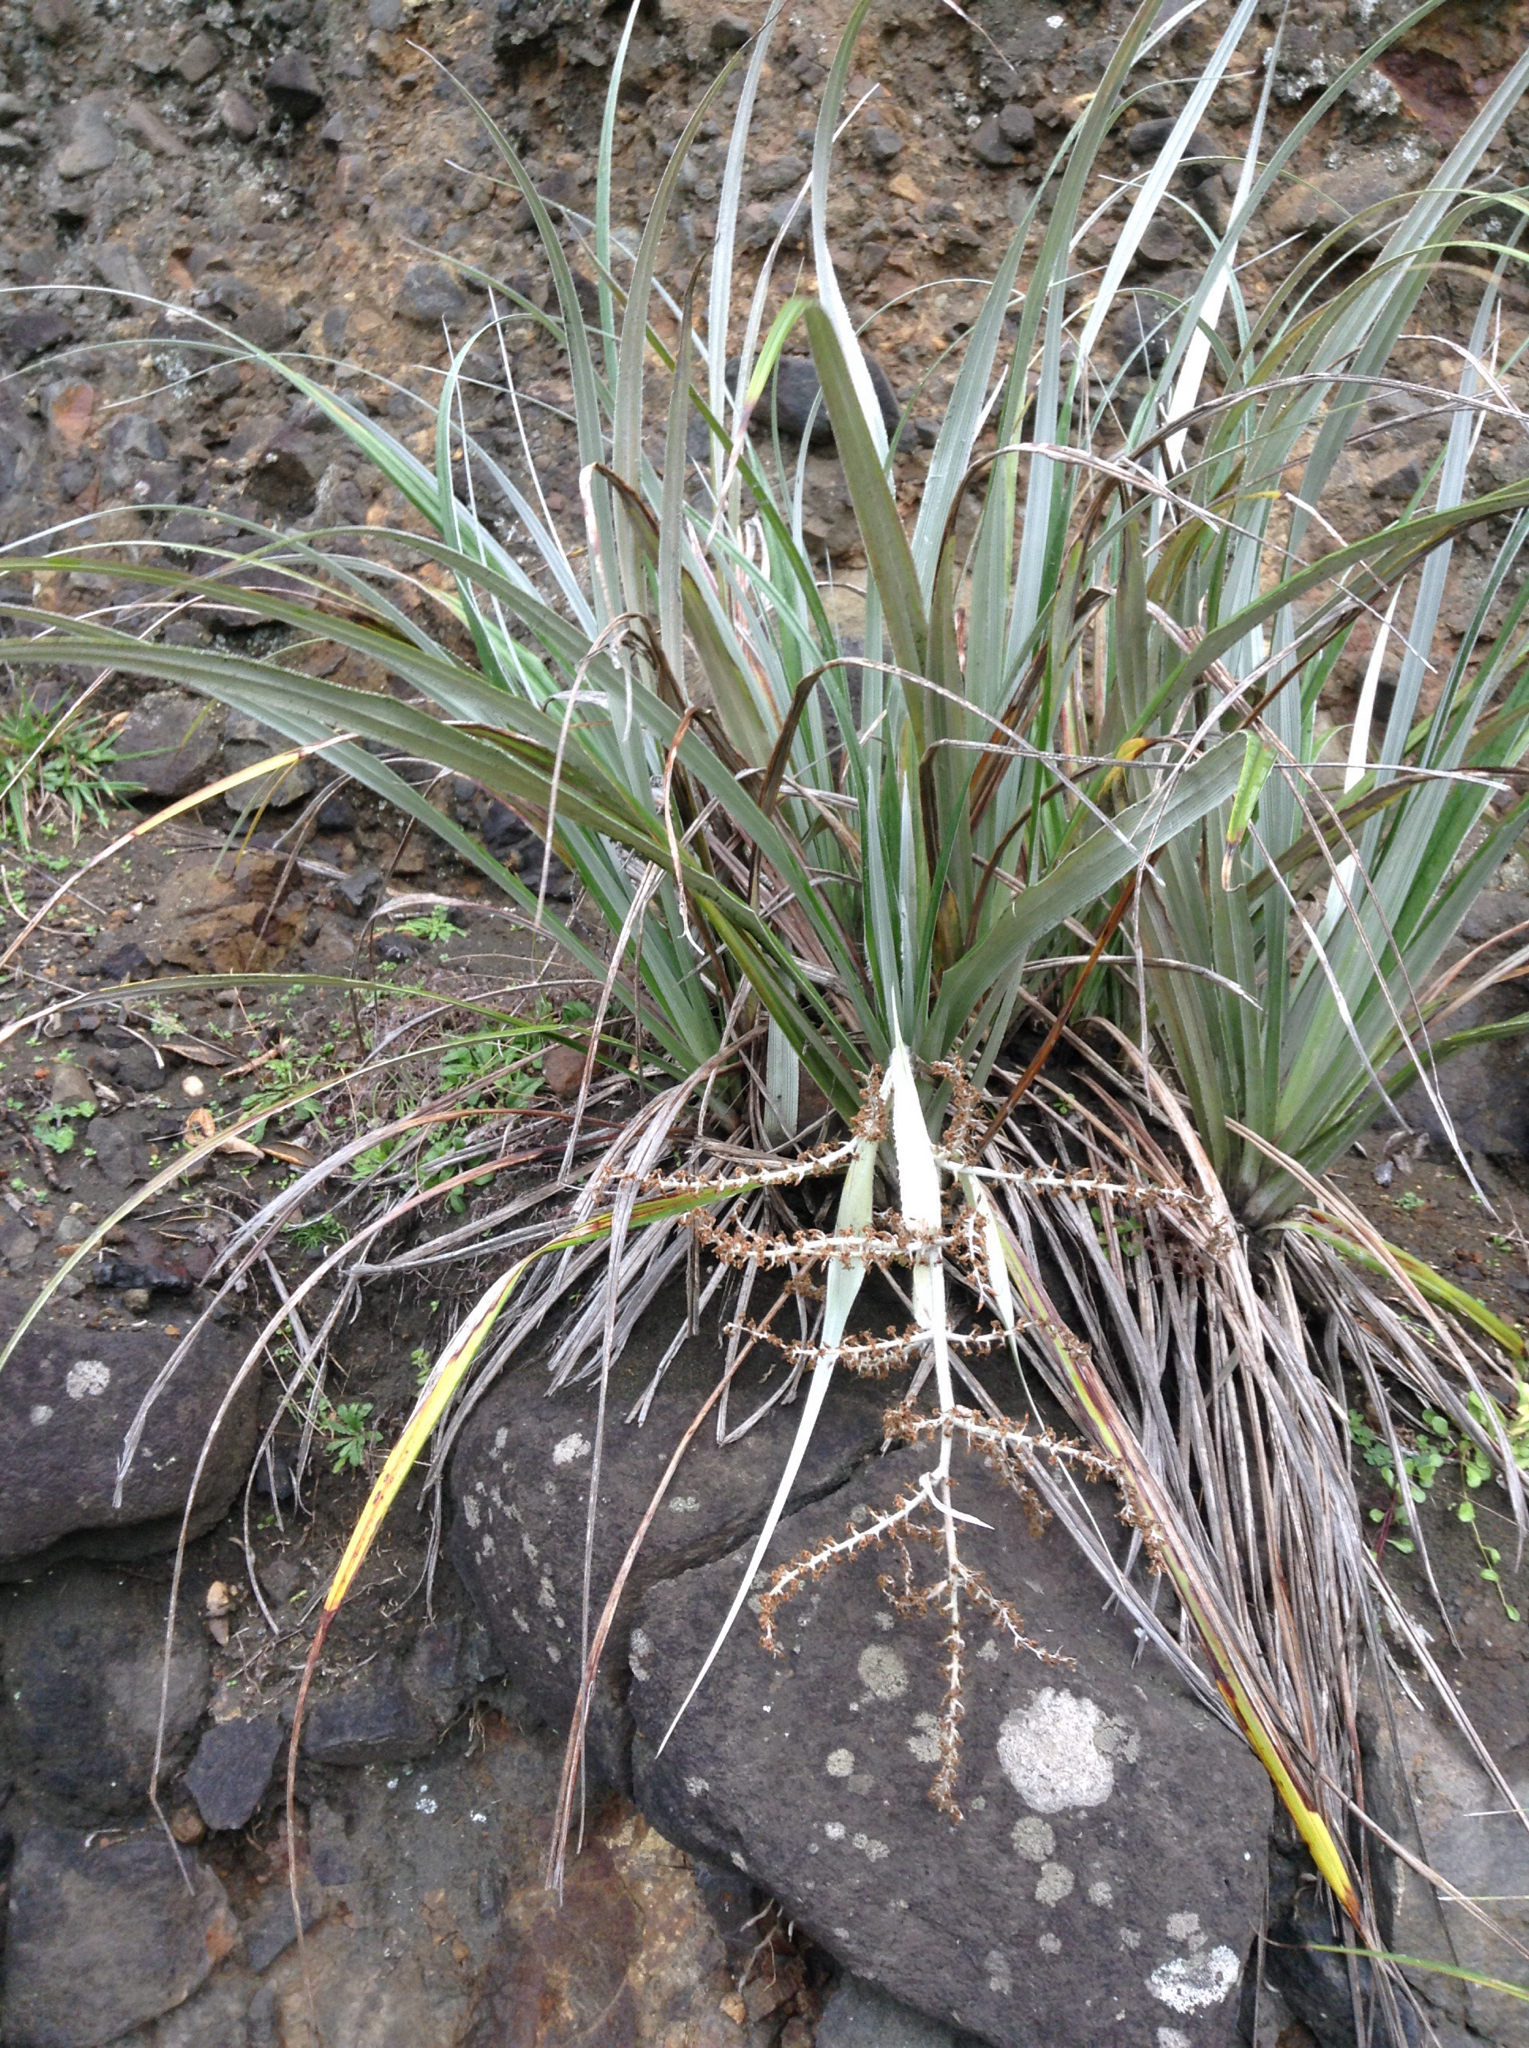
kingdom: Plantae
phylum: Tracheophyta
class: Liliopsida
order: Asparagales
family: Asteliaceae
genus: Astelia
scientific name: Astelia banksii
